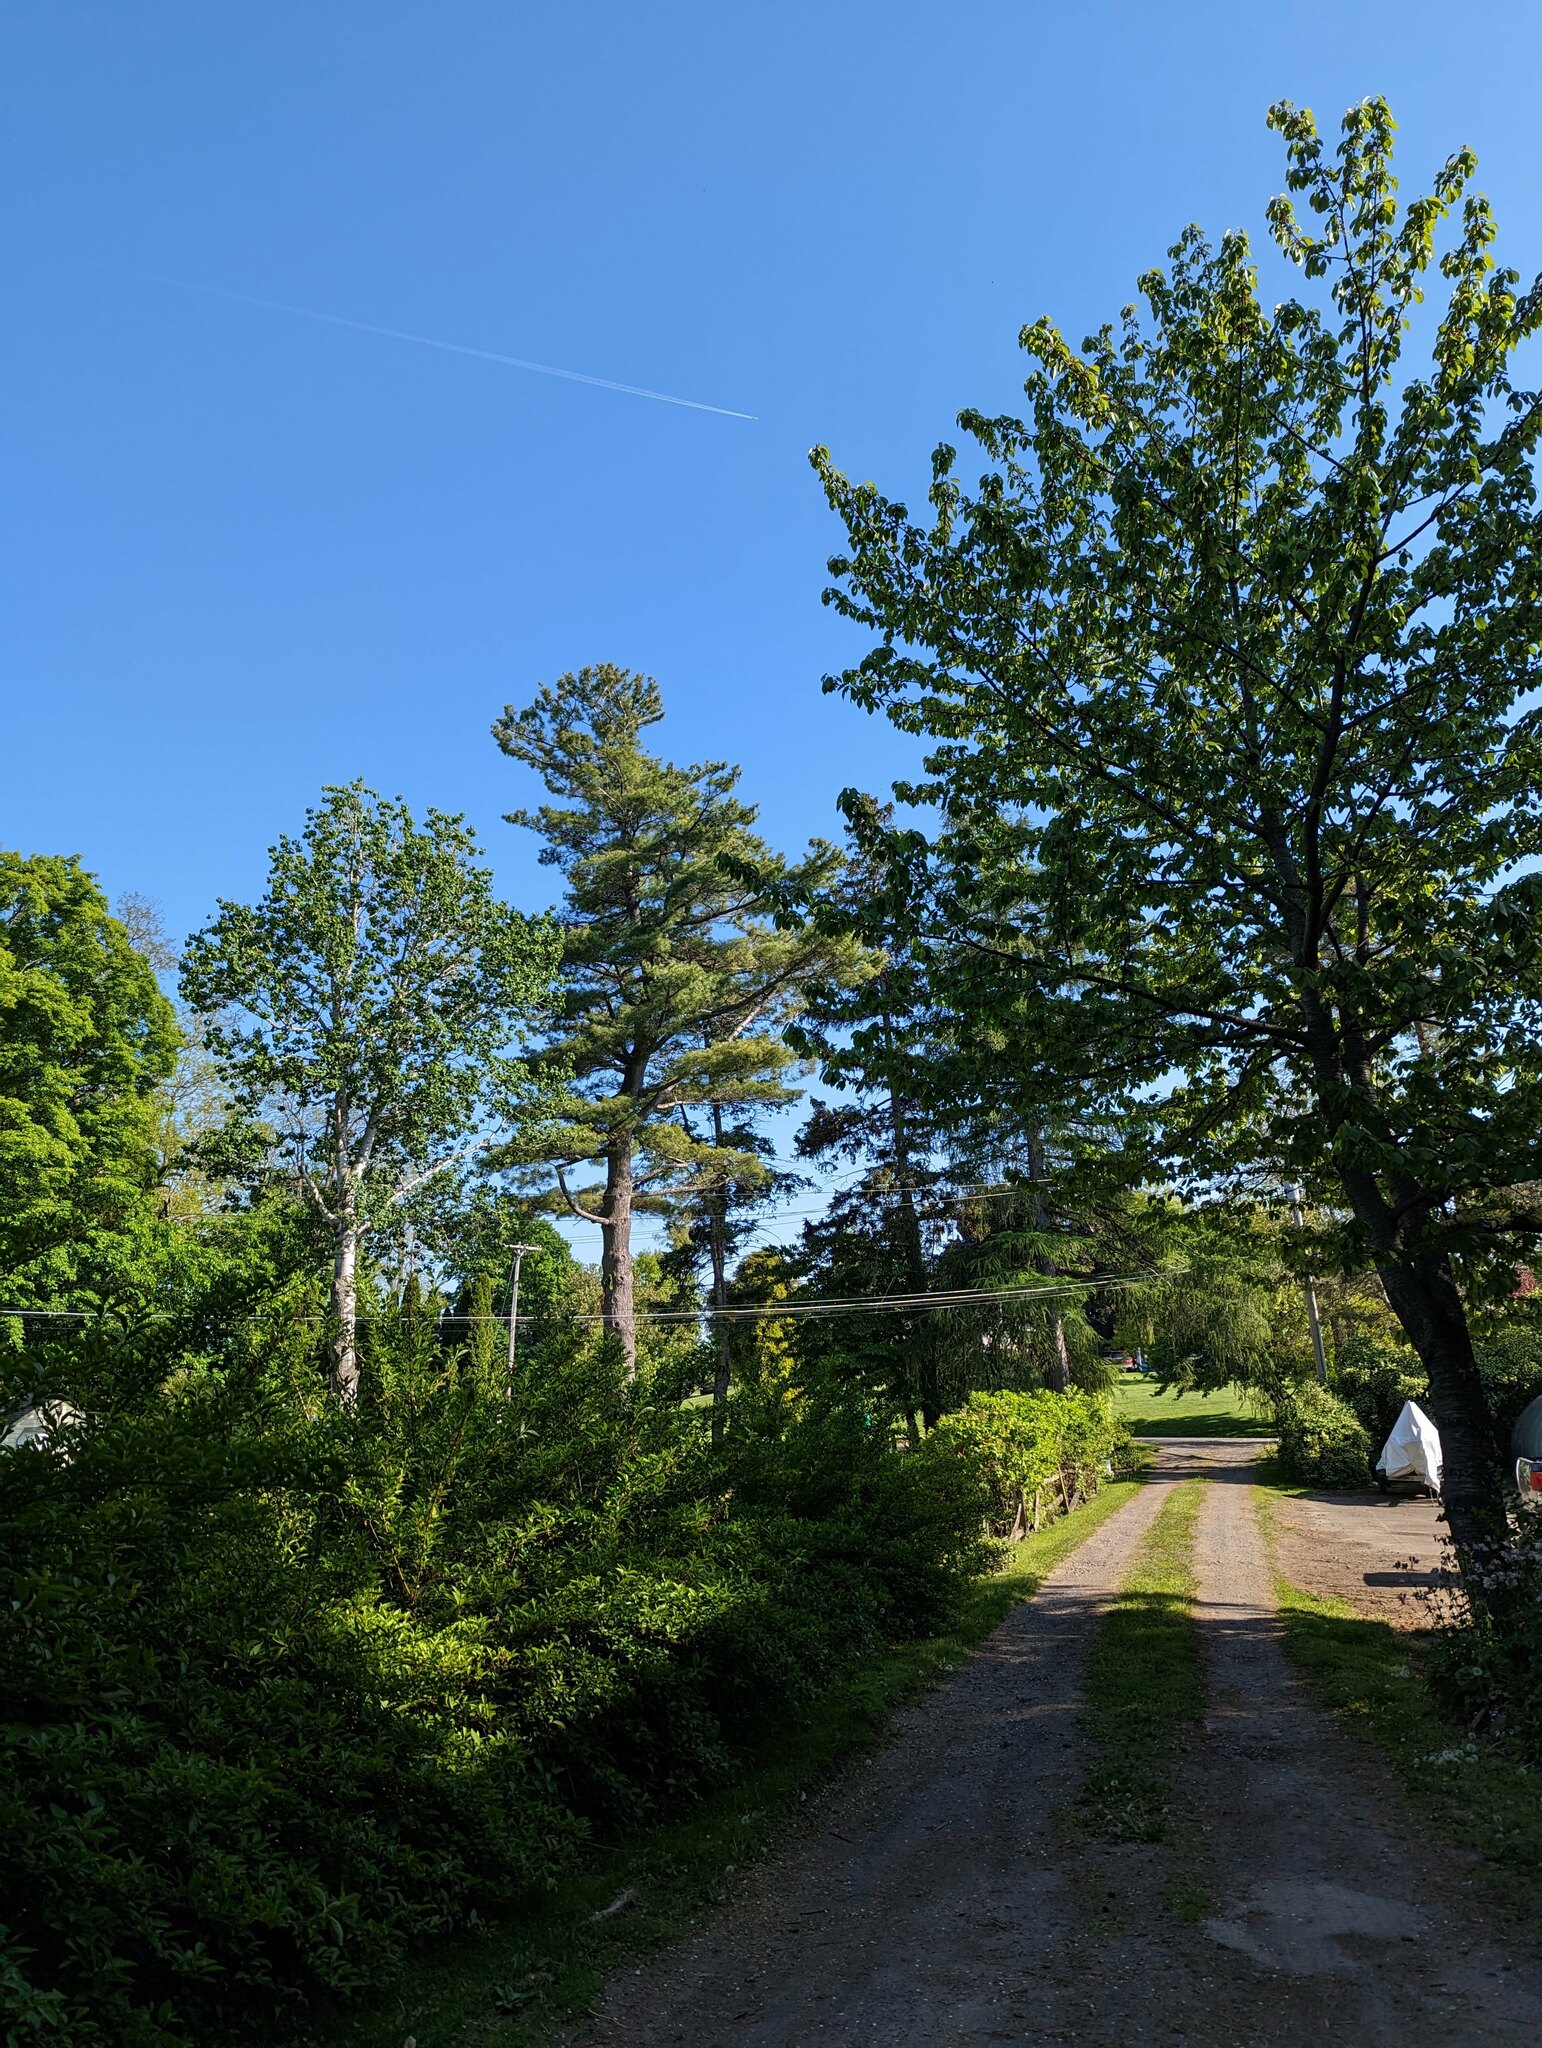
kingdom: Plantae
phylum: Tracheophyta
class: Pinopsida
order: Pinales
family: Pinaceae
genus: Pinus
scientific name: Pinus strobus
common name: Weymouth pine
